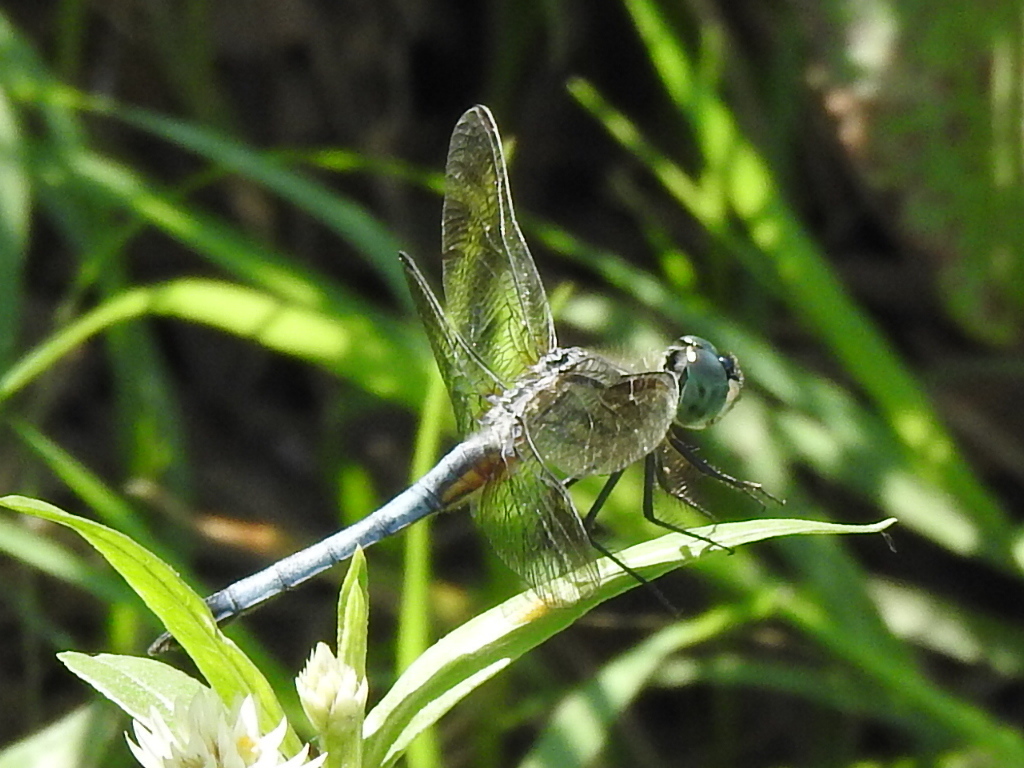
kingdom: Animalia
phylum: Arthropoda
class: Insecta
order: Odonata
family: Libellulidae
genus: Pachydiplax
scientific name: Pachydiplax longipennis
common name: Blue dasher
